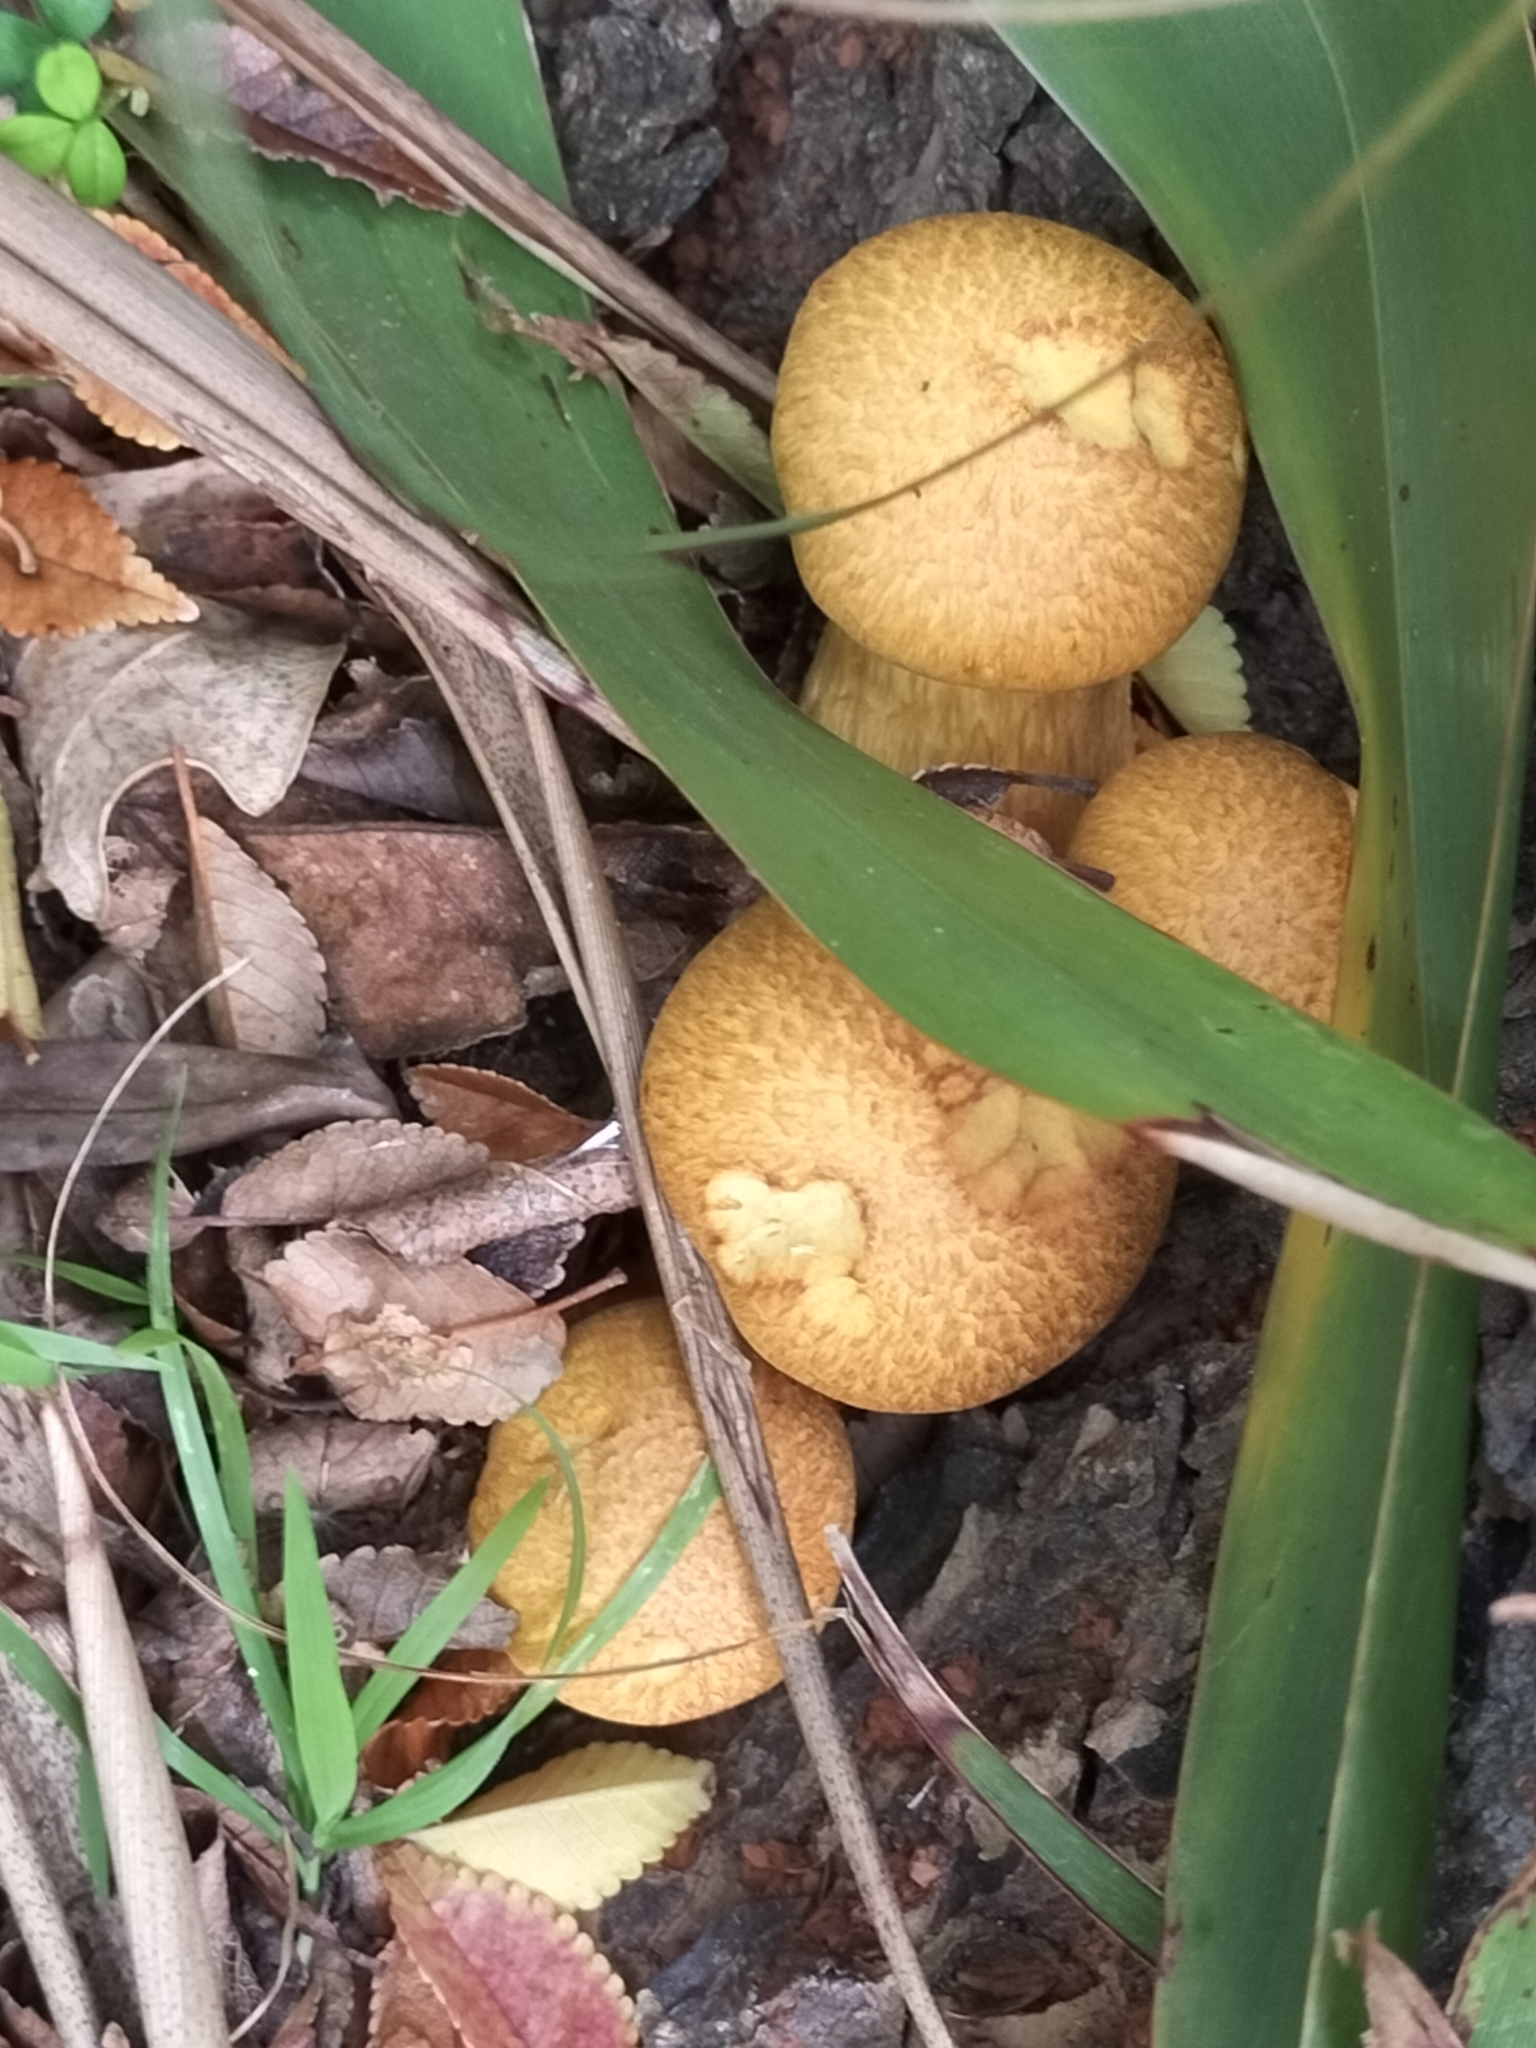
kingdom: Fungi
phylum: Basidiomycota
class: Agaricomycetes
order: Agaricales
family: Hymenogastraceae
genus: Gymnopilus
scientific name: Gymnopilus junonius
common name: Spectacular rustgill
